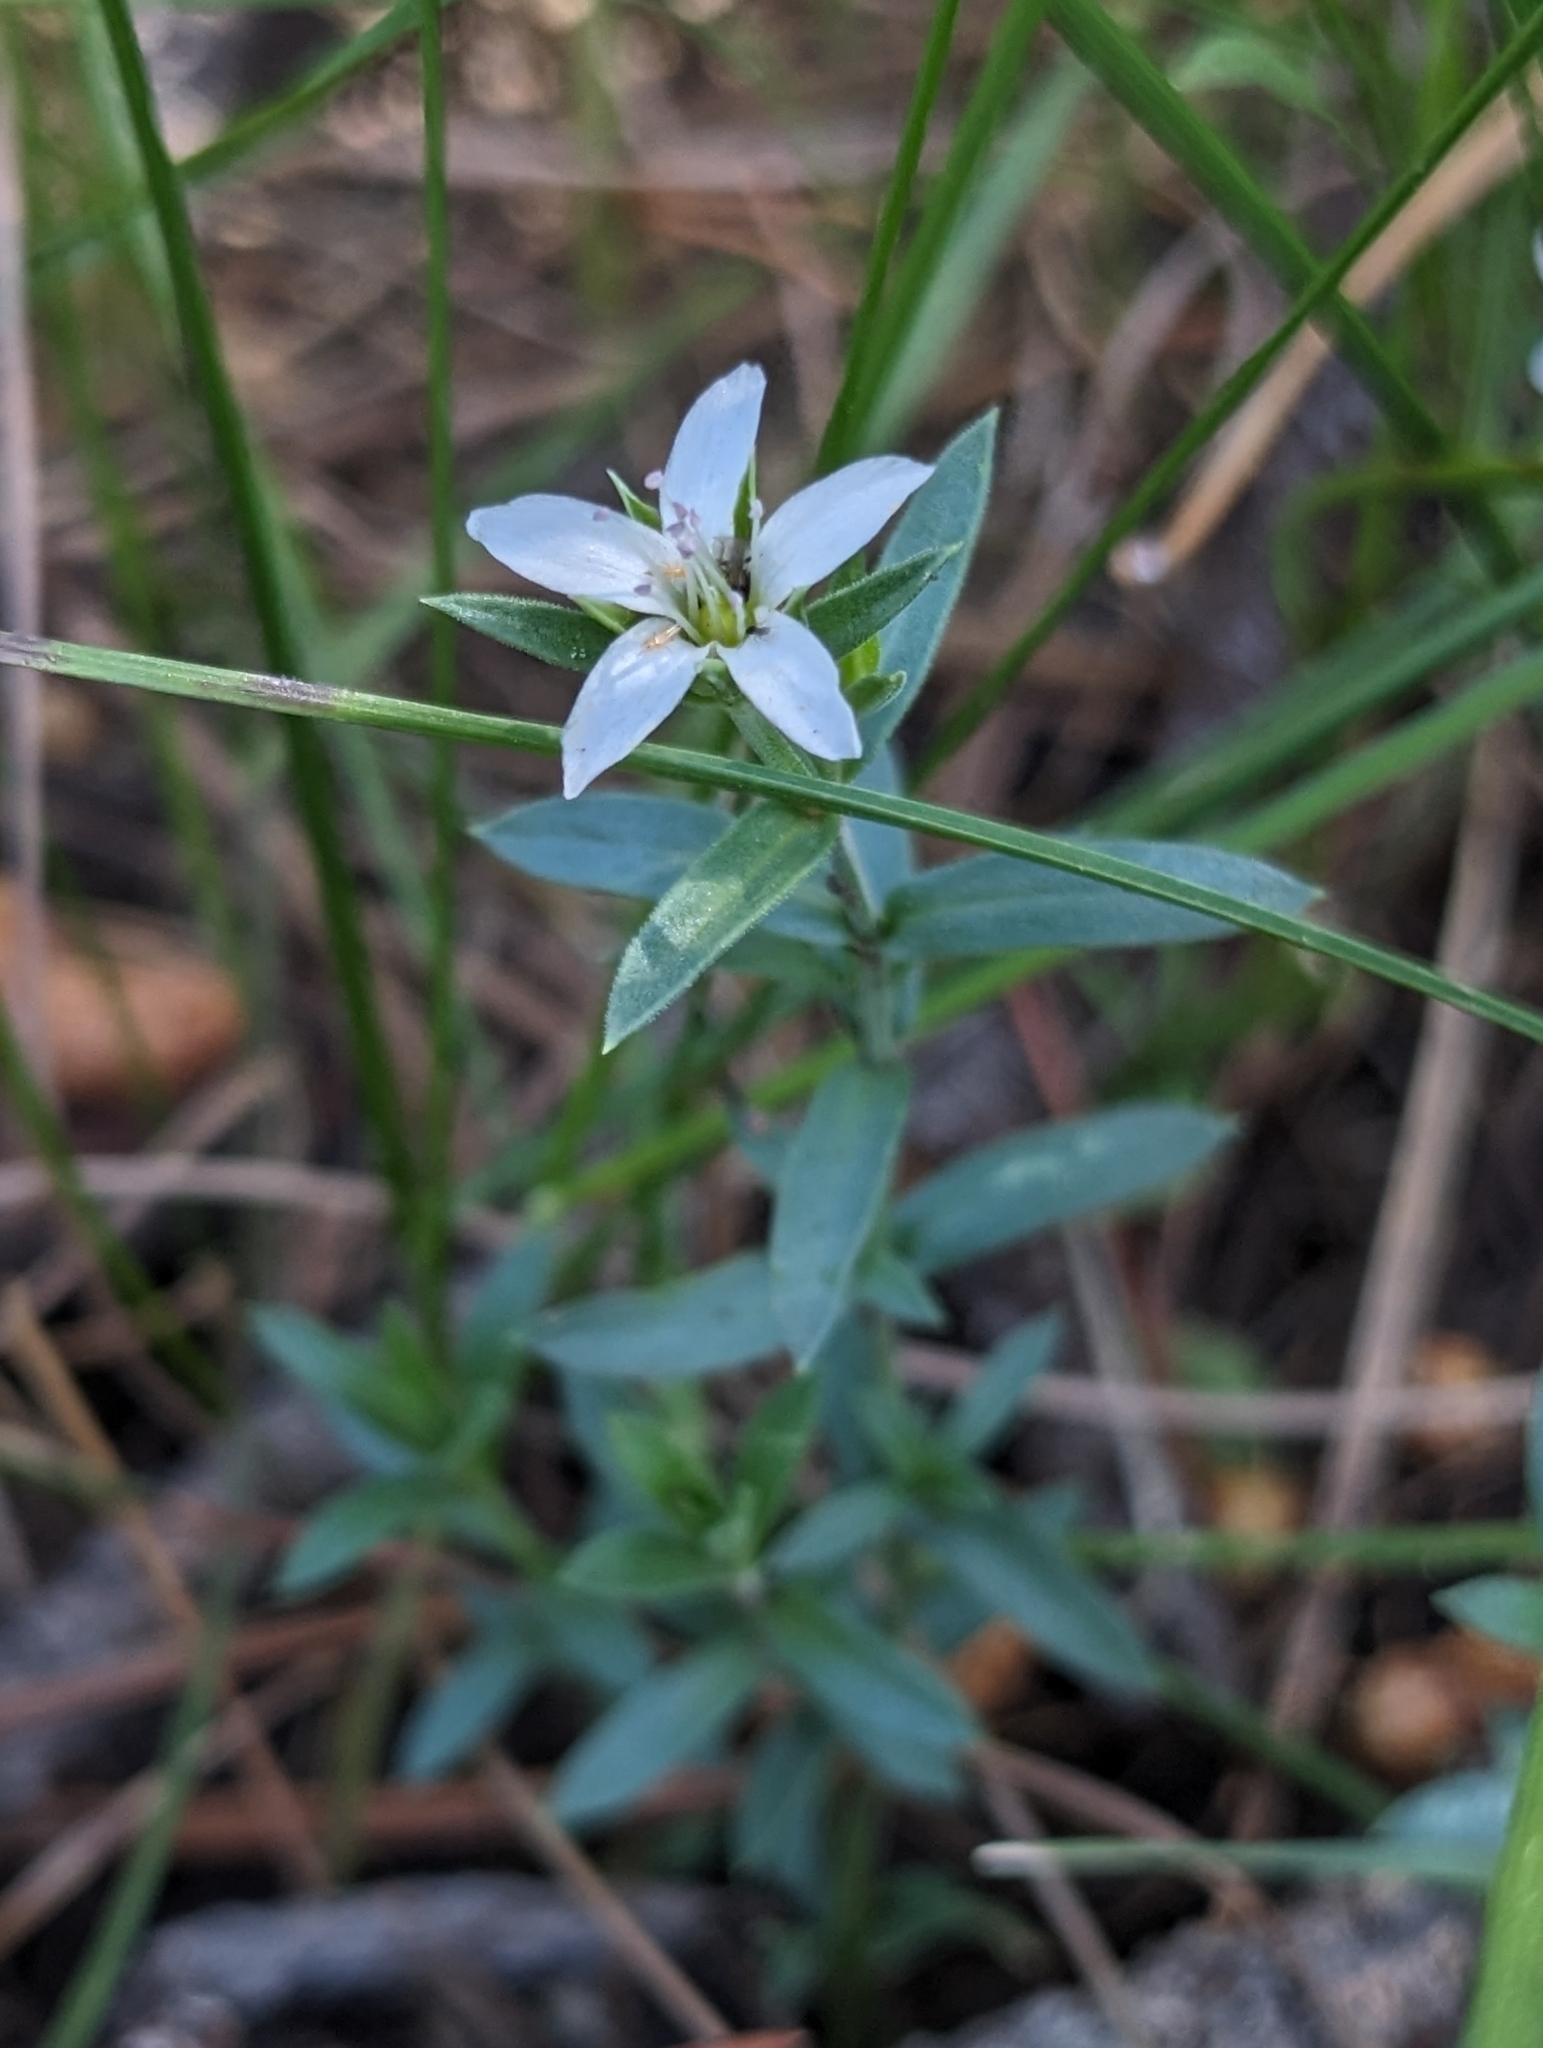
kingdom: Plantae
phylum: Tracheophyta
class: Magnoliopsida
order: Caryophyllales
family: Caryophyllaceae
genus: Arenaria
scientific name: Arenaria lanuginosa
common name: Spread sandwort
